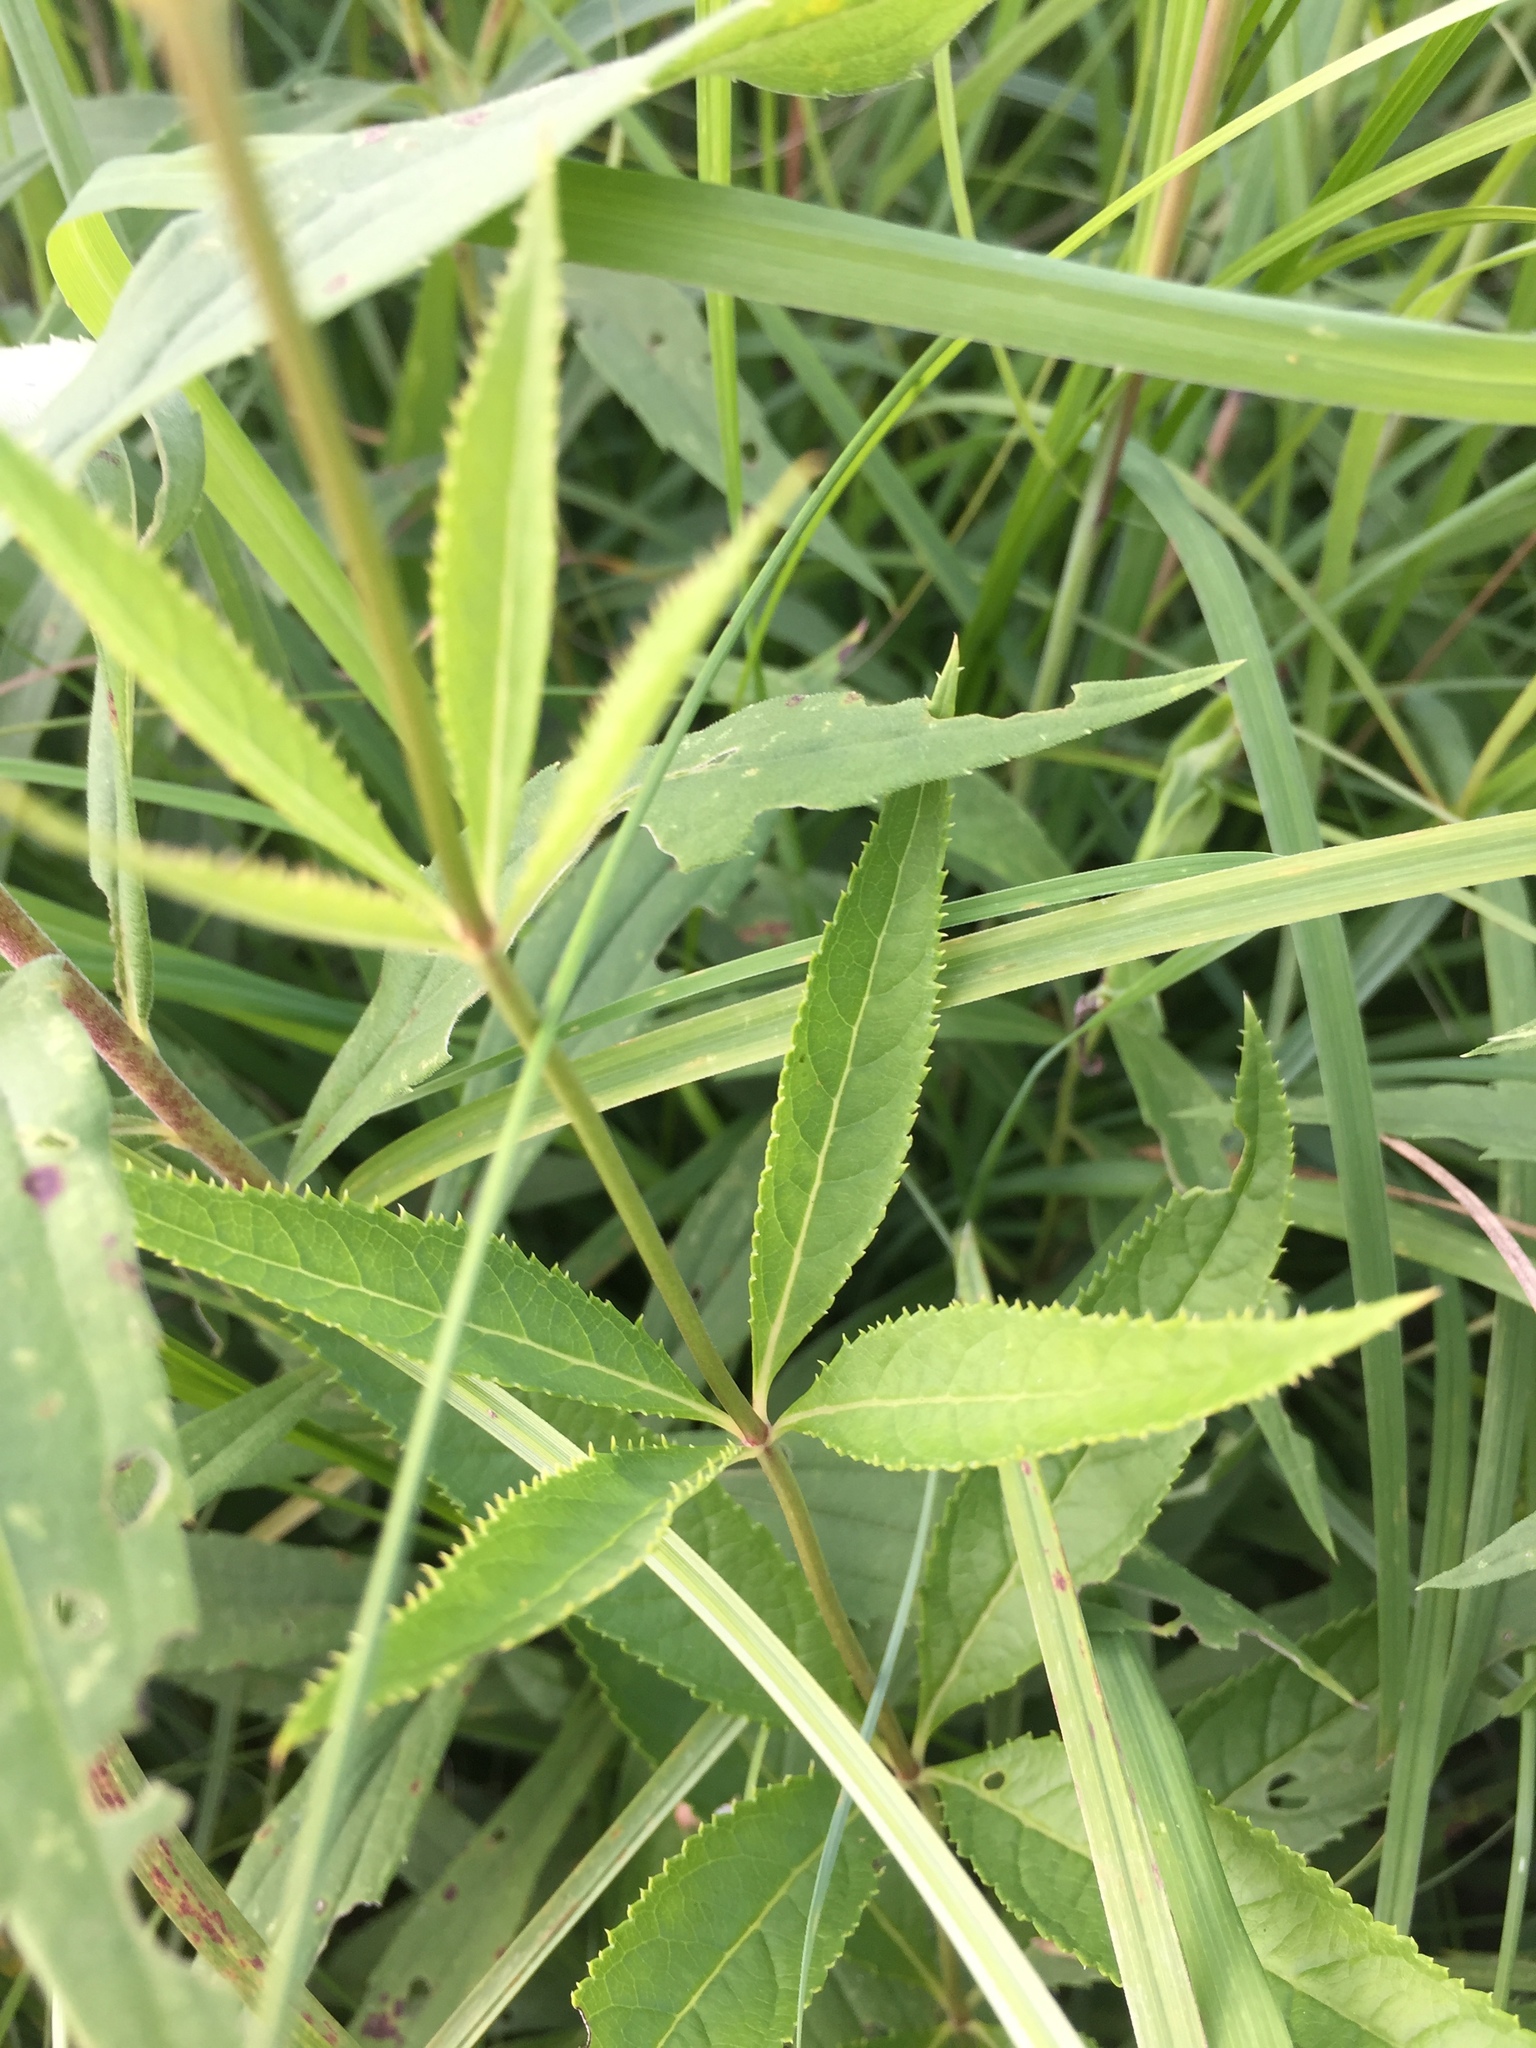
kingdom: Plantae
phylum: Tracheophyta
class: Magnoliopsida
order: Lamiales
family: Plantaginaceae
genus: Veronicastrum
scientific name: Veronicastrum virginicum
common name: Blackroot
